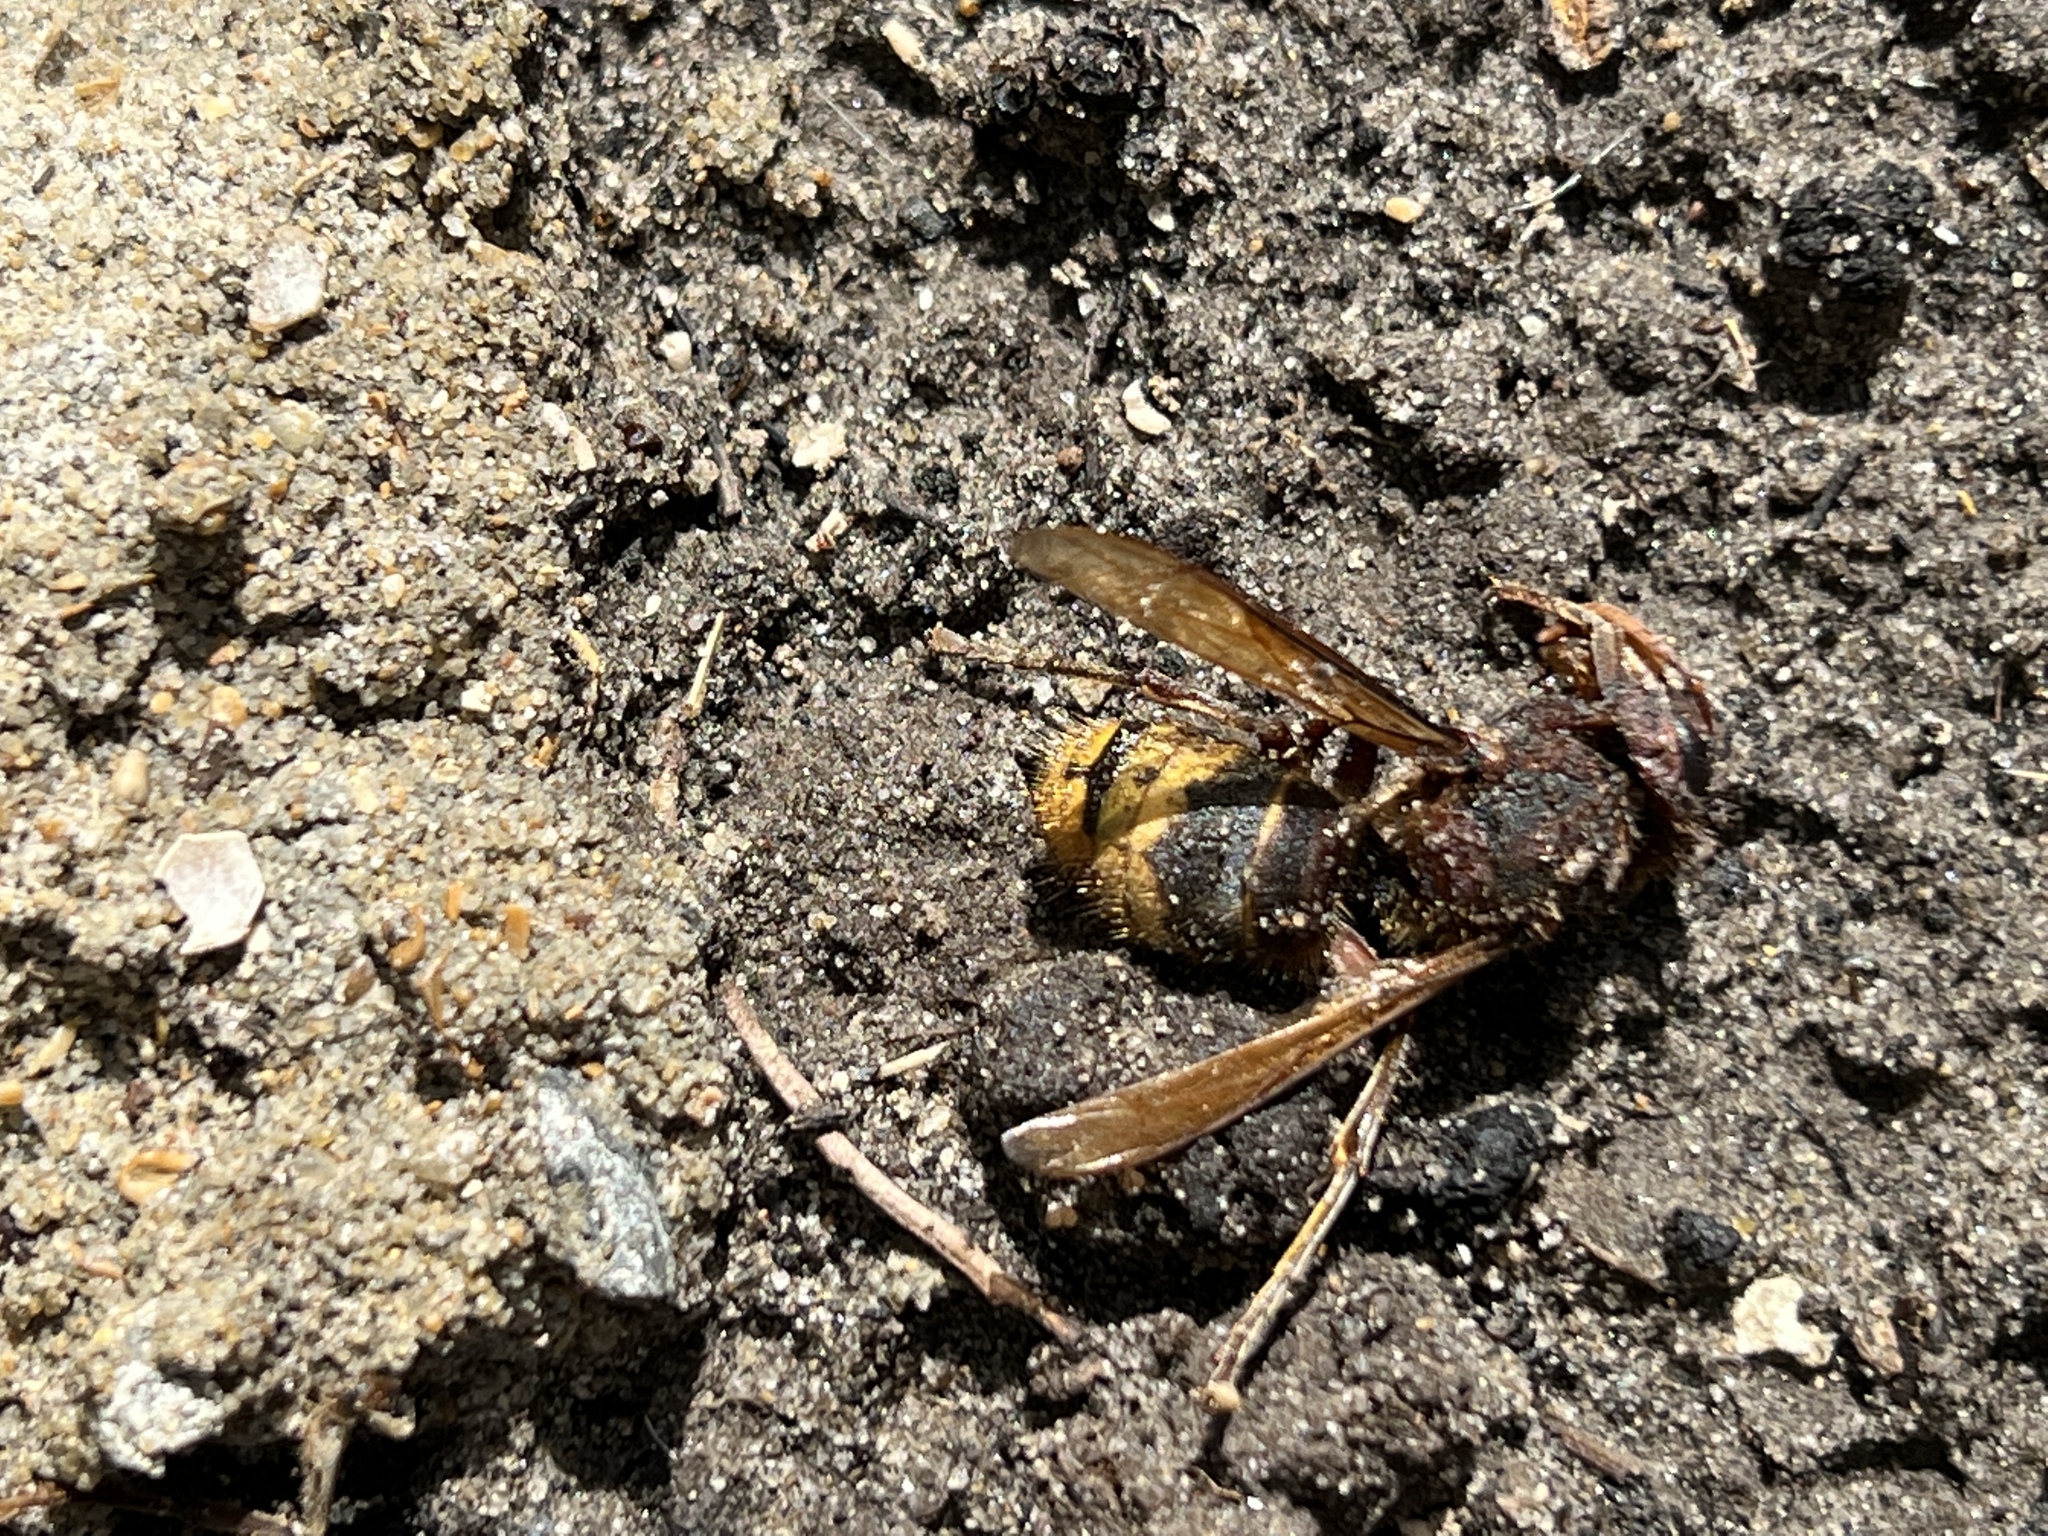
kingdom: Animalia
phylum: Arthropoda
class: Insecta
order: Hymenoptera
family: Vespidae
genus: Vespa
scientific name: Vespa crabro
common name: Hornet
